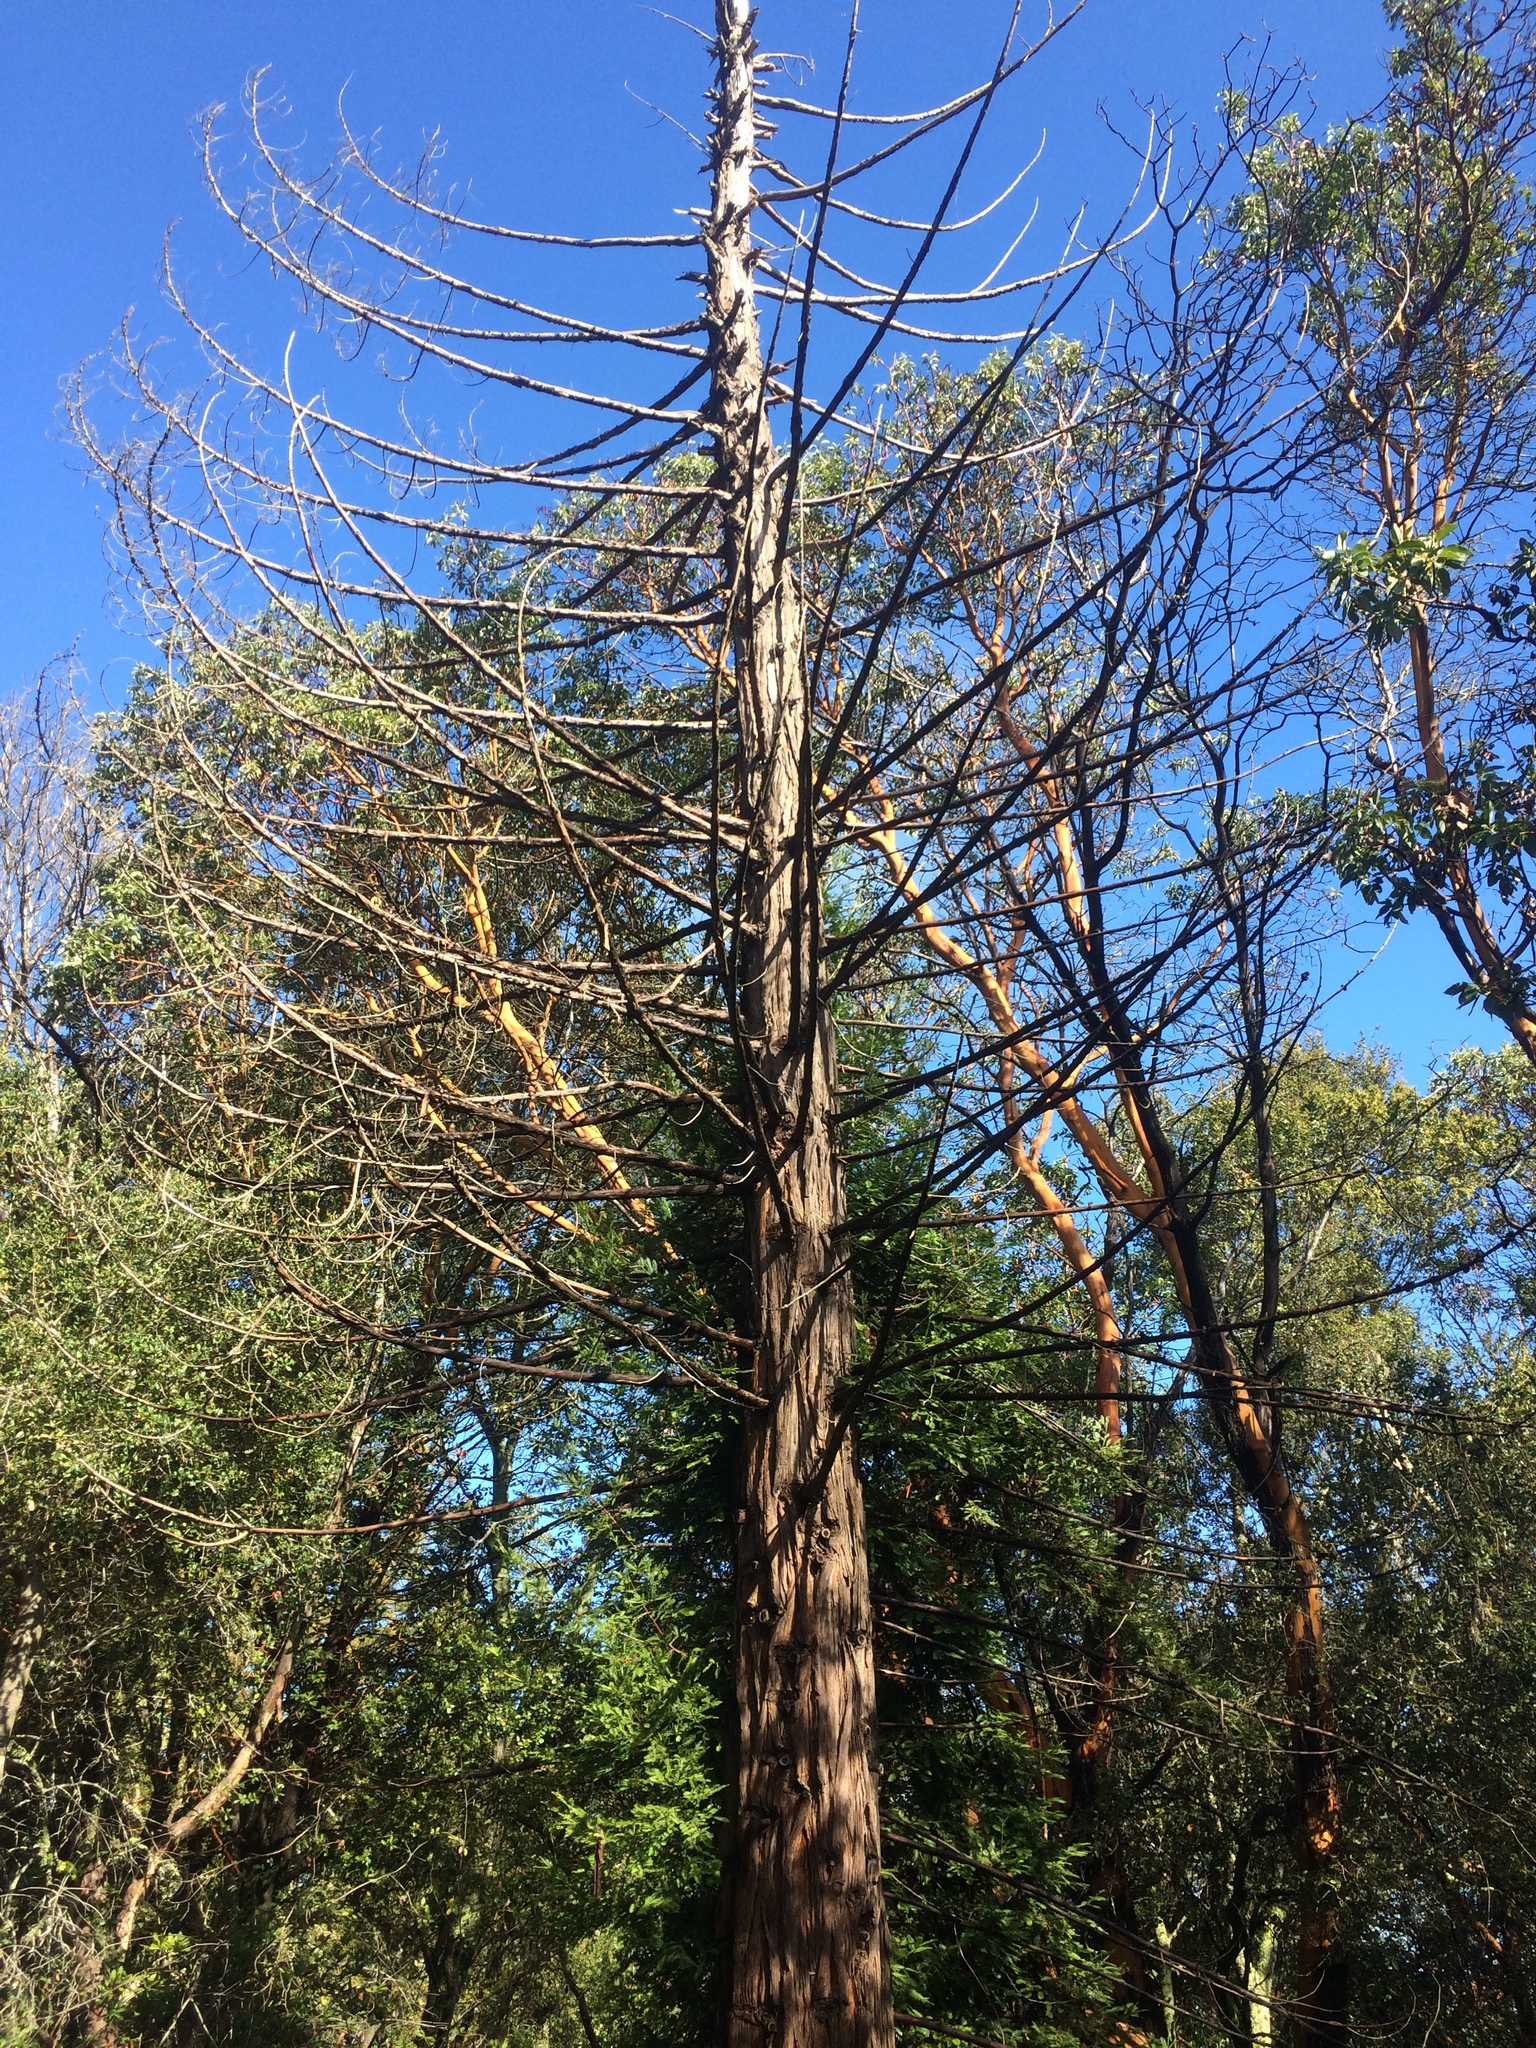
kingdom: Plantae
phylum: Tracheophyta
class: Pinopsida
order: Pinales
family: Cupressaceae
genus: Sequoia
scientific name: Sequoia sempervirens
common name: Coast redwood
